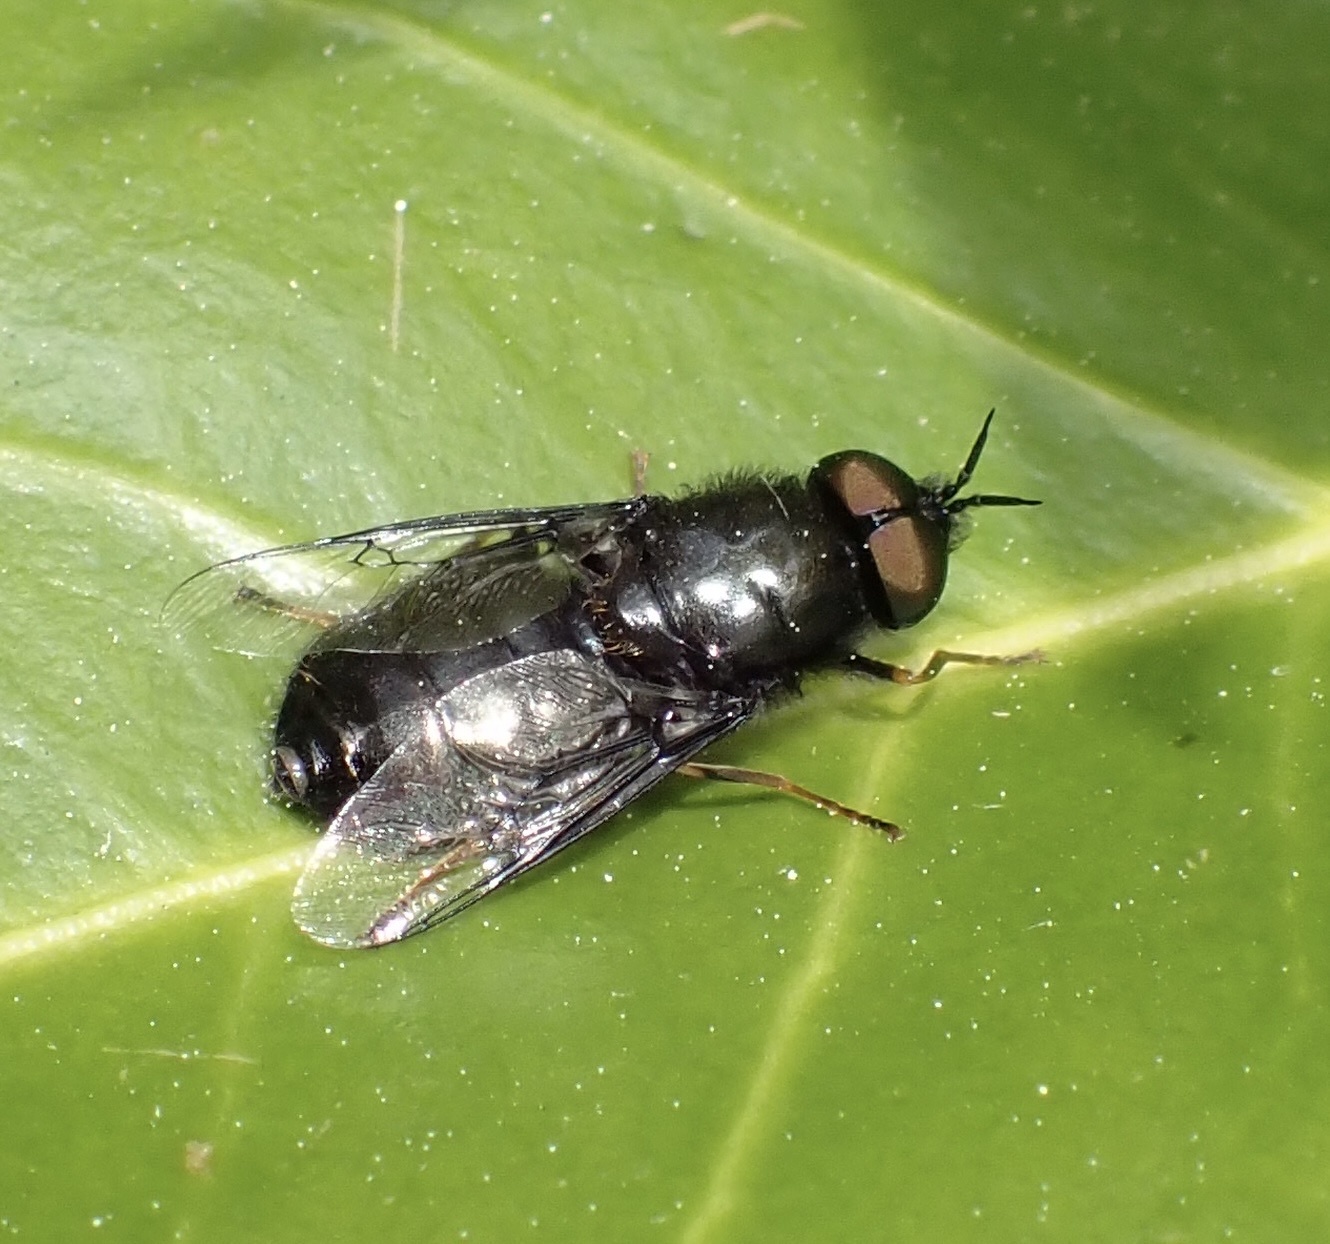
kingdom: Animalia
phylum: Arthropoda
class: Insecta
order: Diptera
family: Stratiomyidae
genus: Odontomyia
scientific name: Odontomyia tigrina
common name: Black colonel
